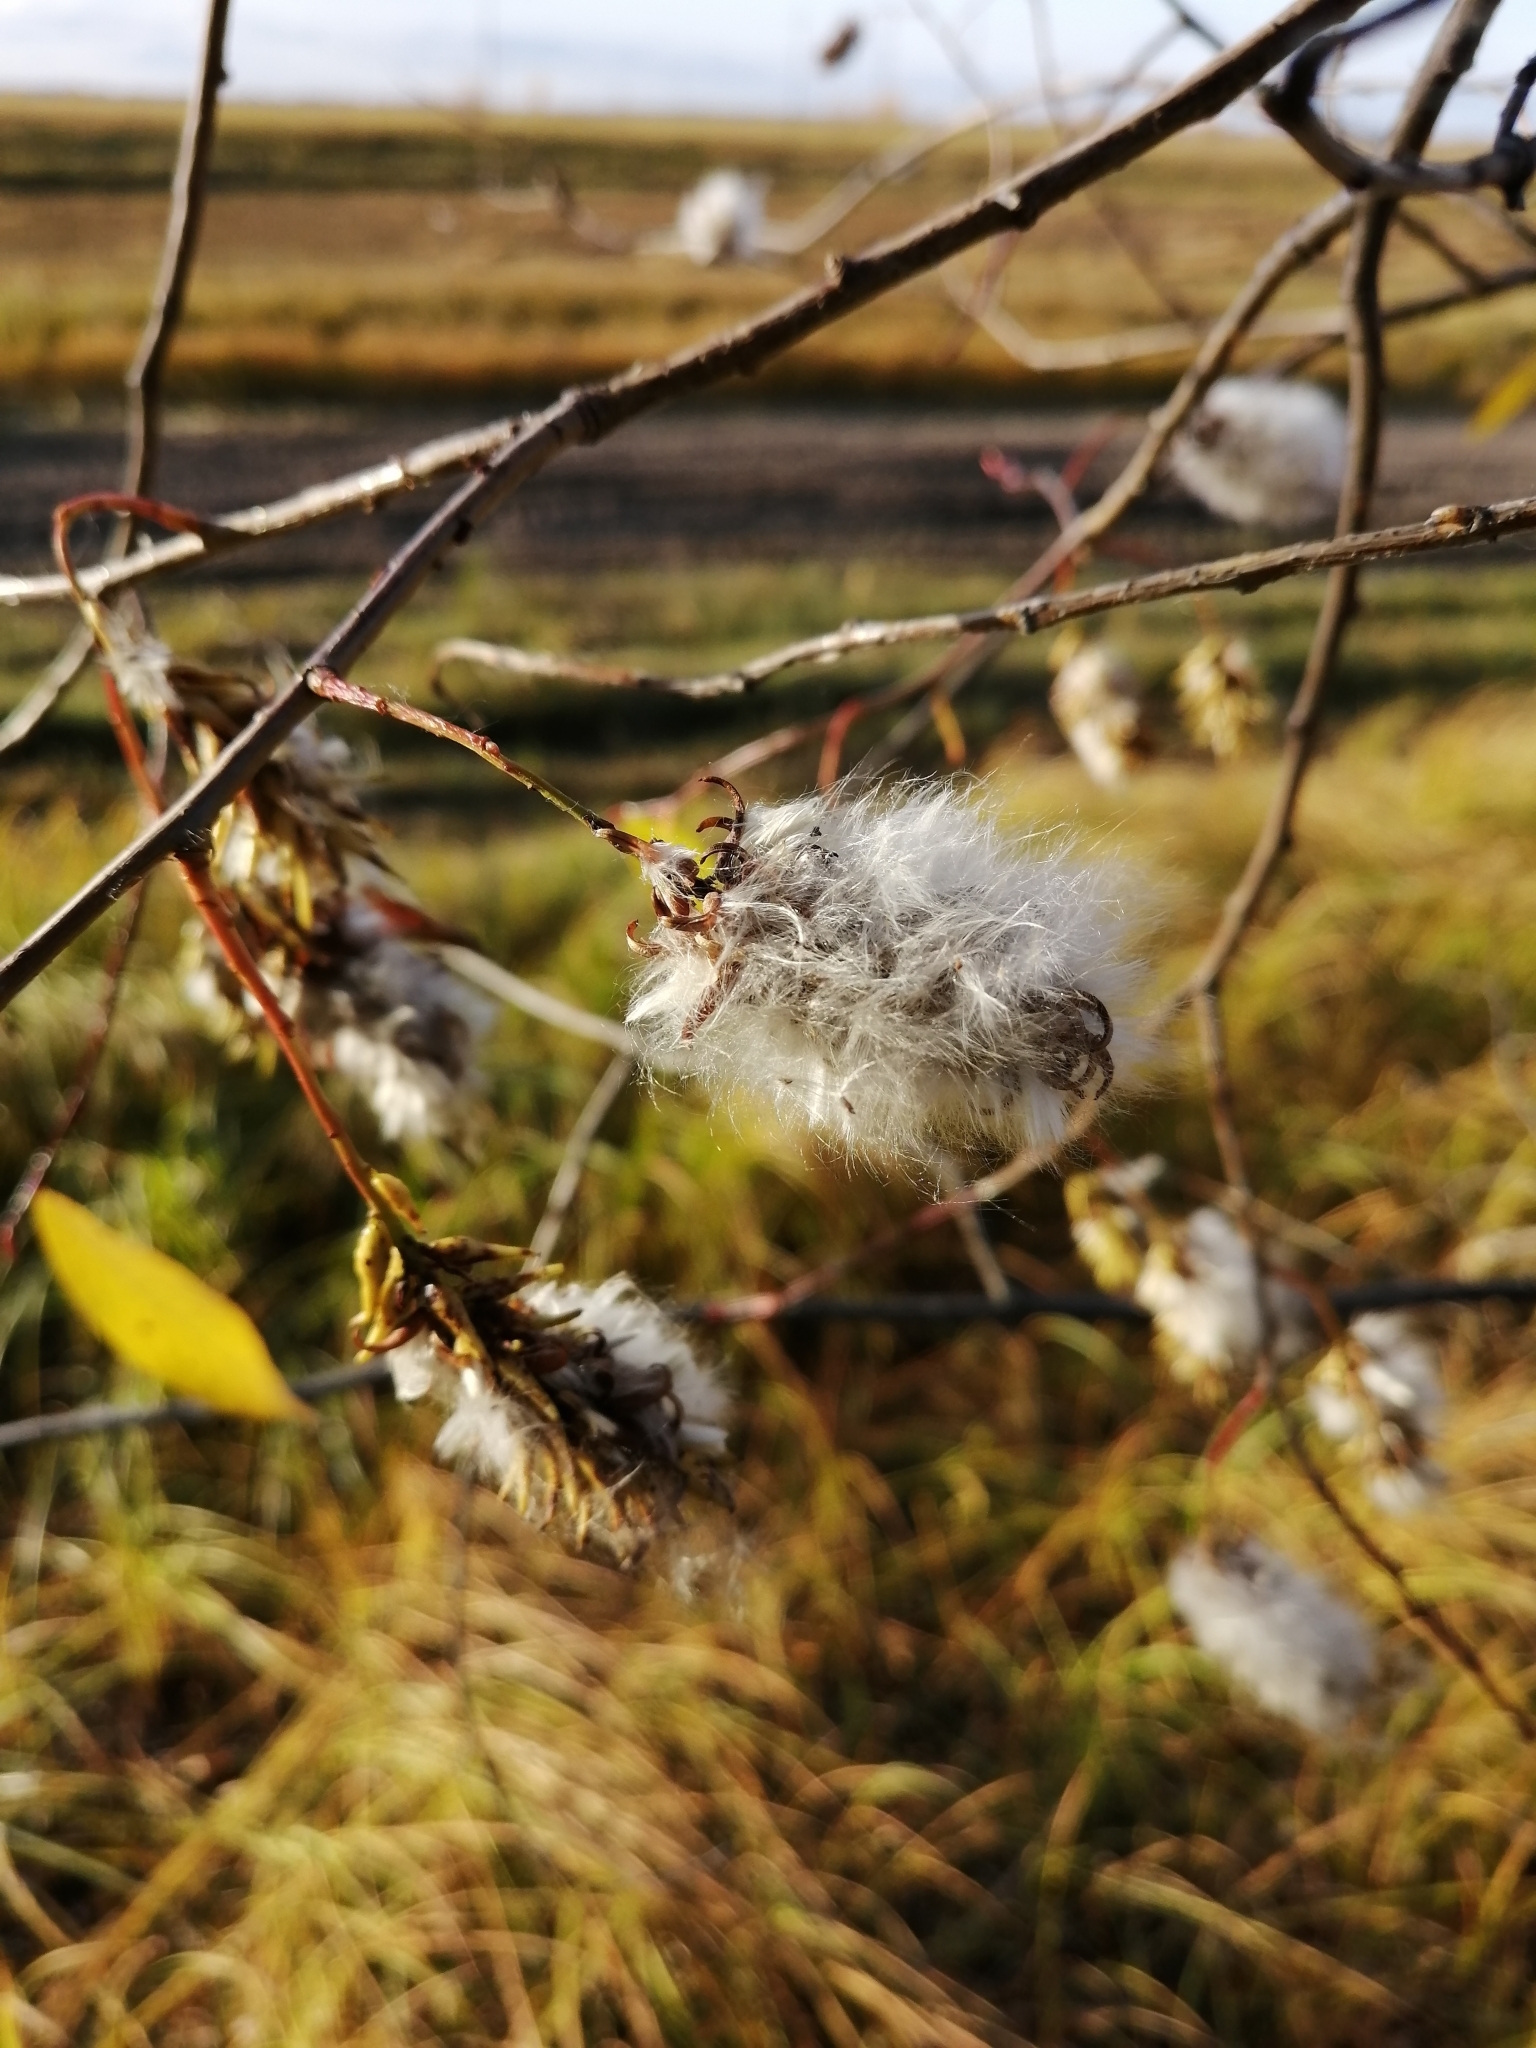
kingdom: Plantae
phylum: Tracheophyta
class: Magnoliopsida
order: Malpighiales
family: Salicaceae
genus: Salix
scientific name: Salix pentandra
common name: Bay willow
